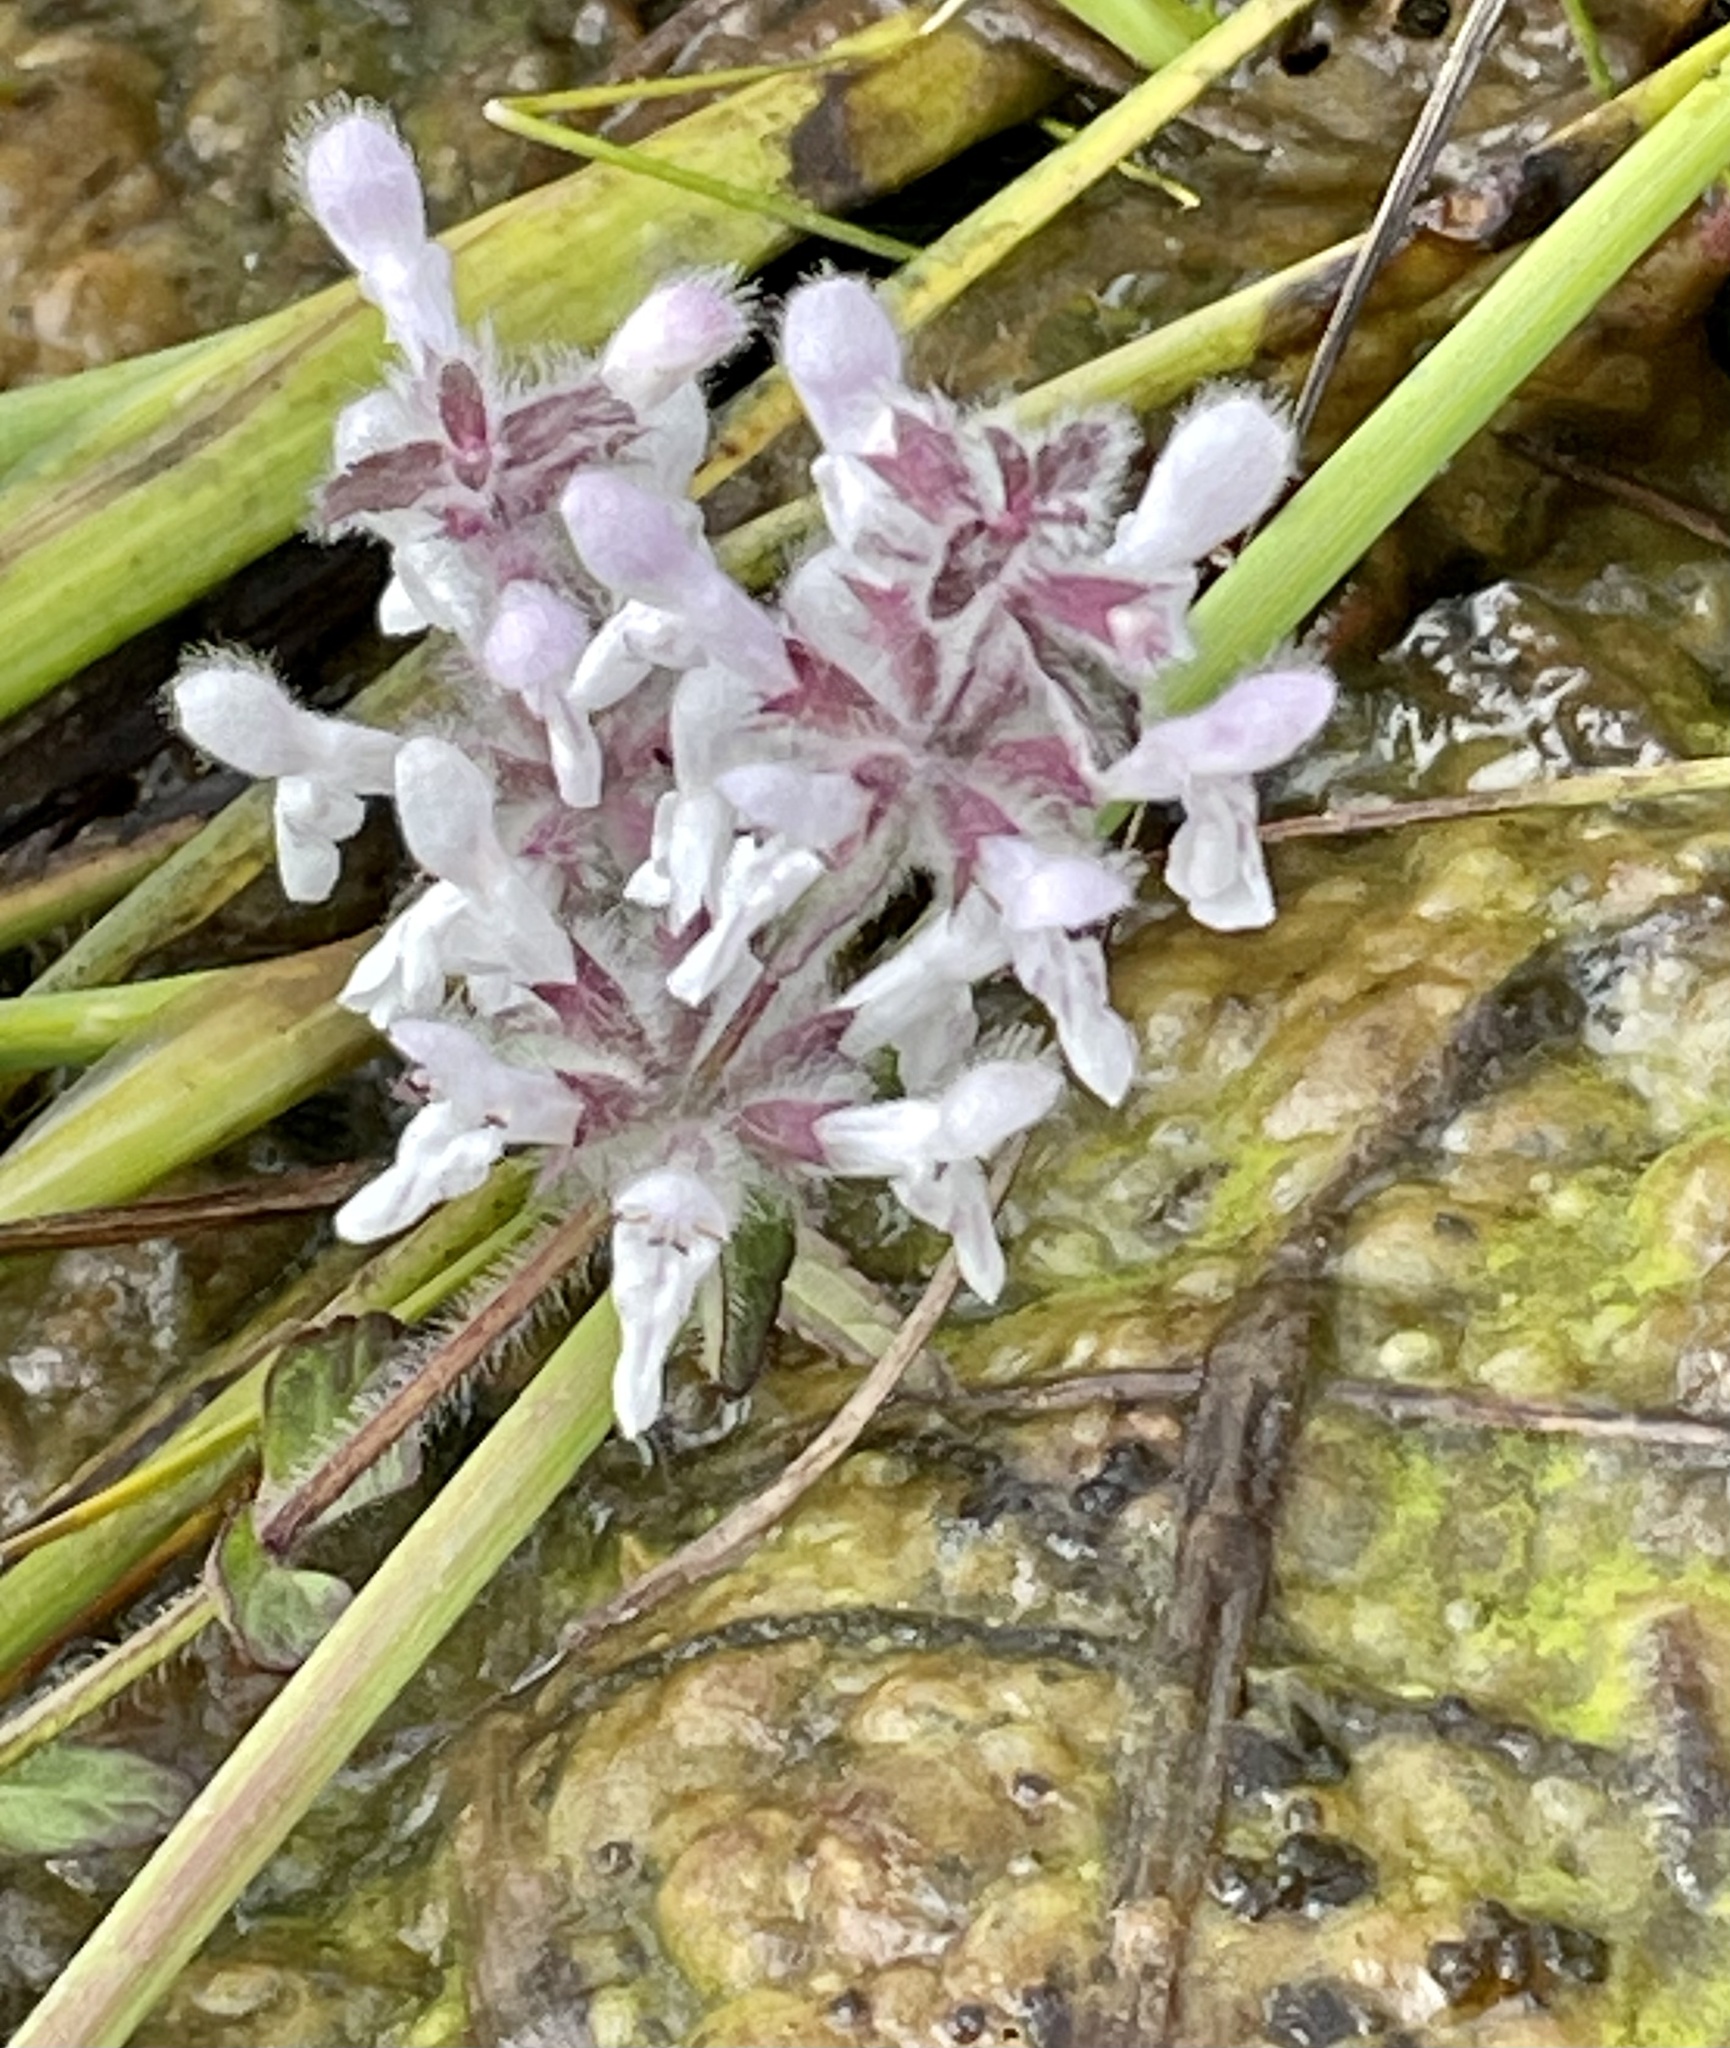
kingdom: Plantae
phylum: Tracheophyta
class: Magnoliopsida
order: Lamiales
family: Lamiaceae
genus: Stachys
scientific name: Stachys ajugoides
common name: Hedge-nettle
